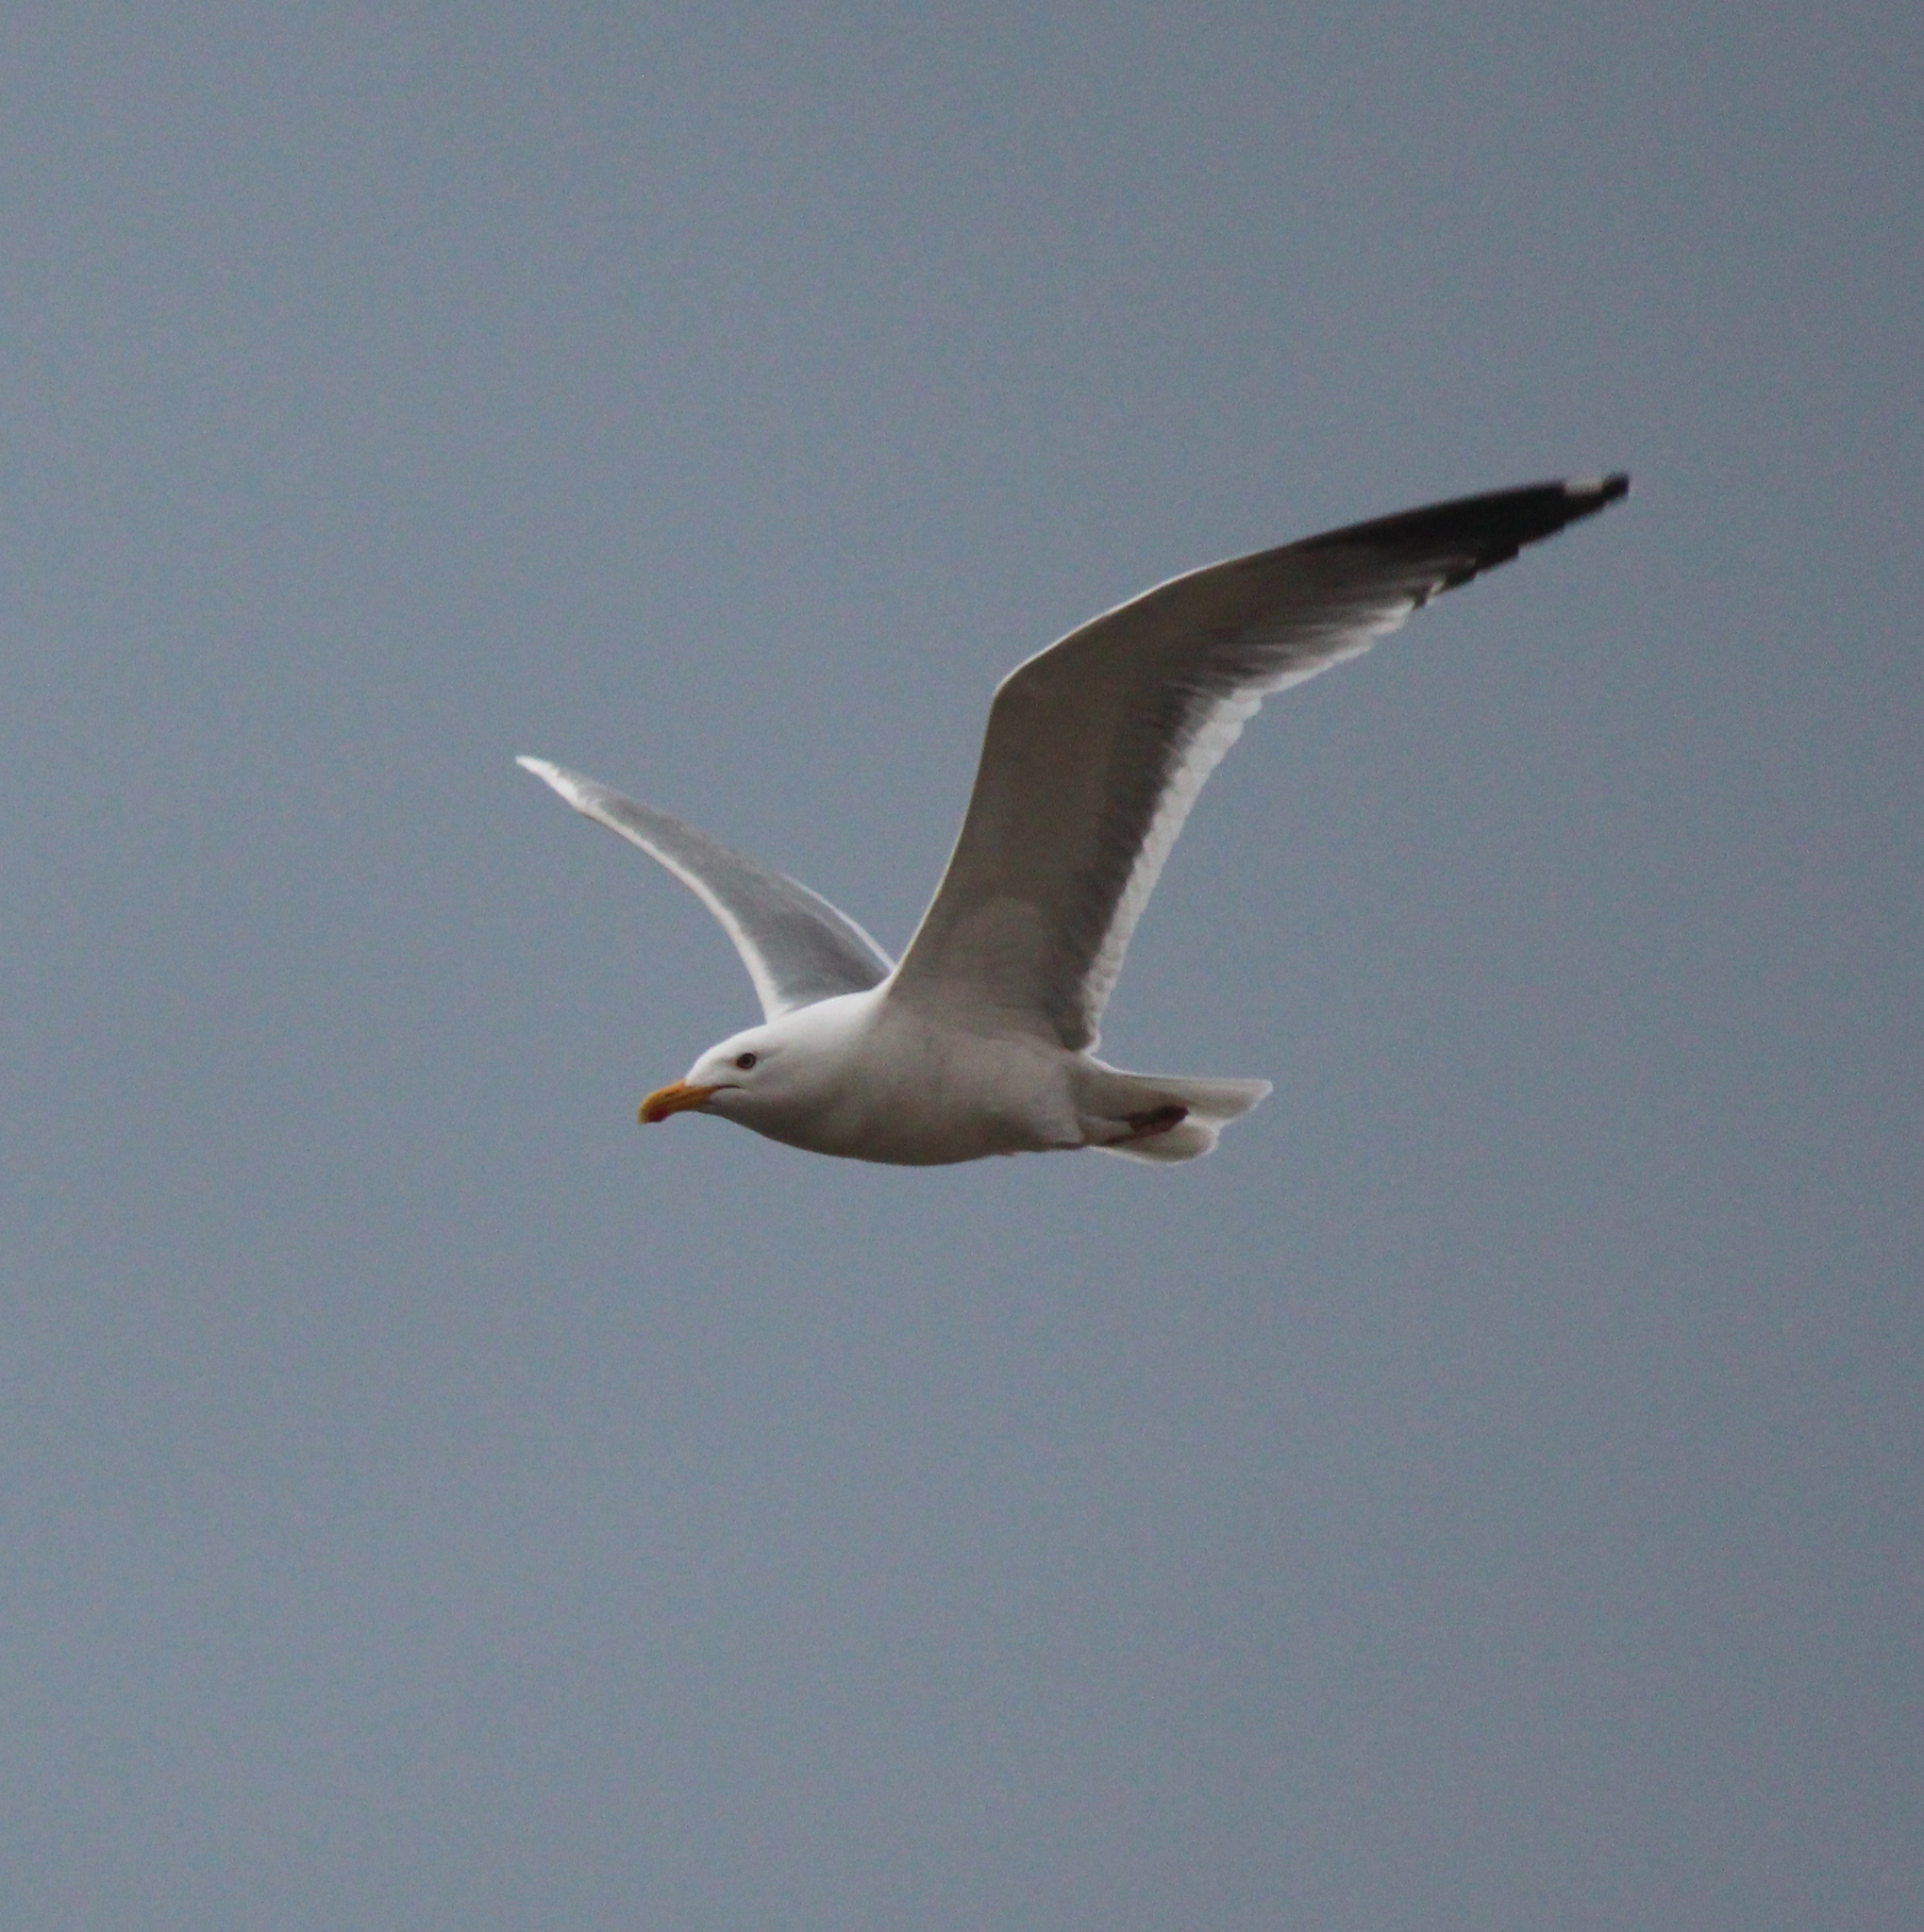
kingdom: Animalia
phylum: Chordata
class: Aves
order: Charadriiformes
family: Laridae
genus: Larus
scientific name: Larus vegae
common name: Vega gull
